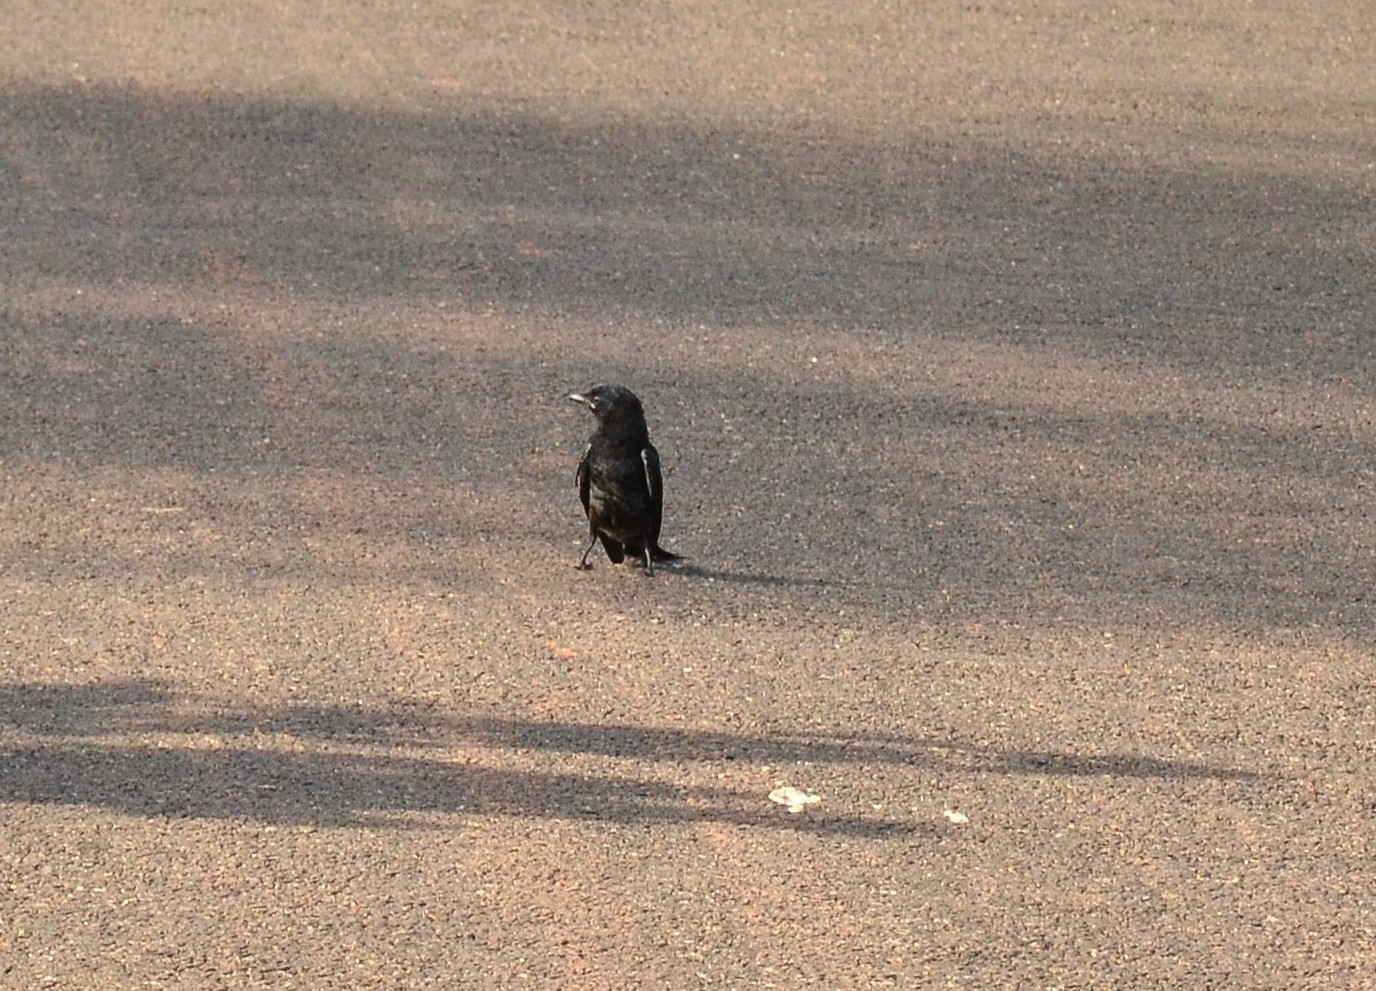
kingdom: Animalia
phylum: Chordata
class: Aves
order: Passeriformes
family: Dicruridae
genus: Dicrurus
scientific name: Dicrurus macrocercus
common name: Black drongo
